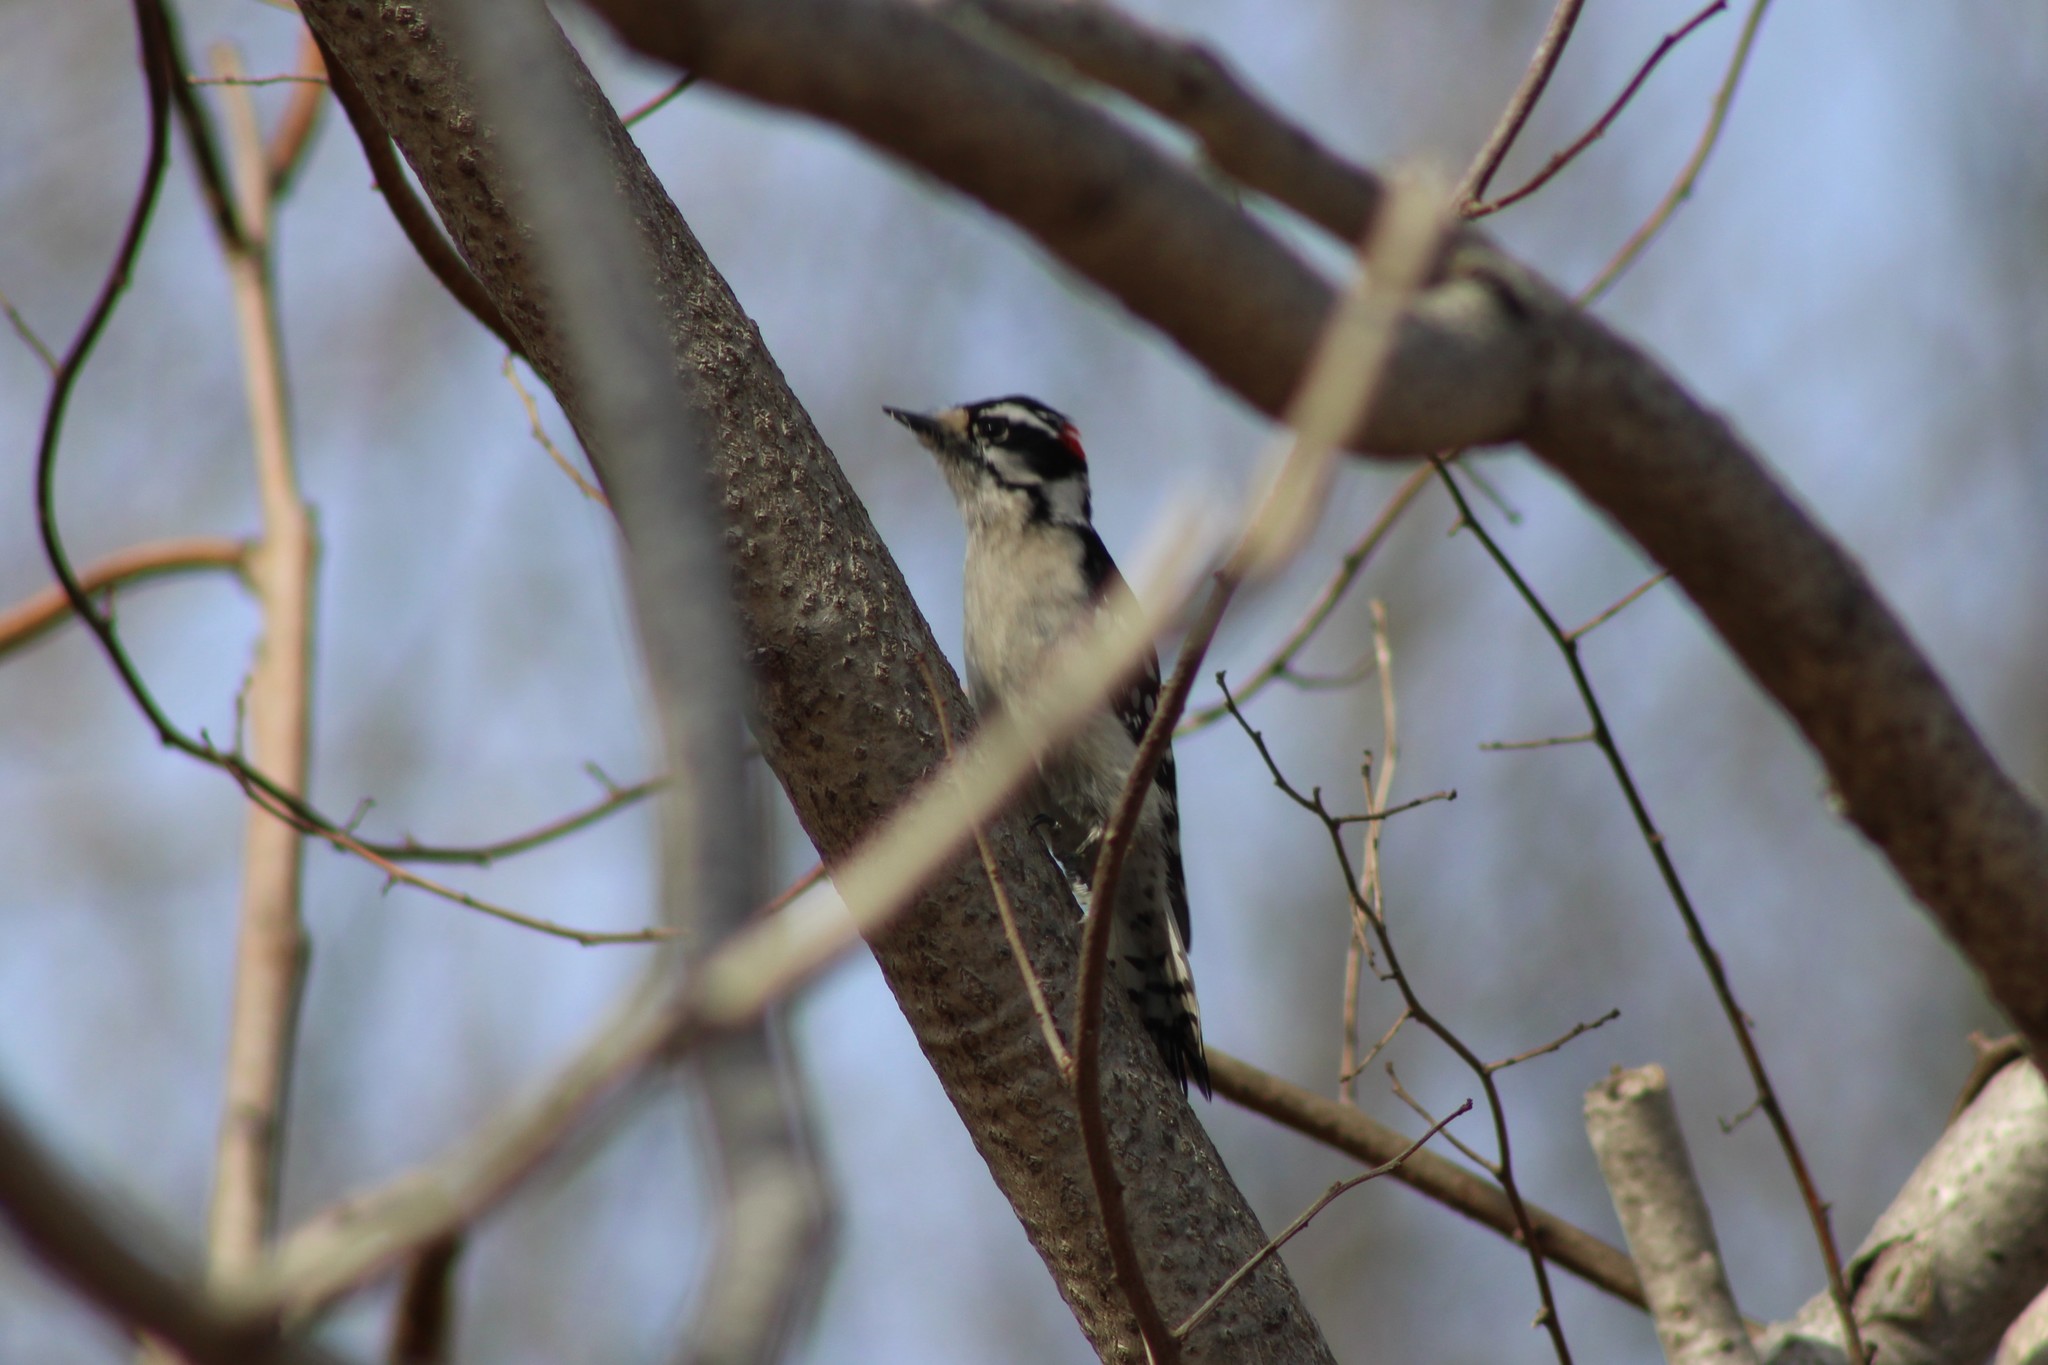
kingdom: Animalia
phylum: Chordata
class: Aves
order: Piciformes
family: Picidae
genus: Dryobates
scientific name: Dryobates pubescens
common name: Downy woodpecker
